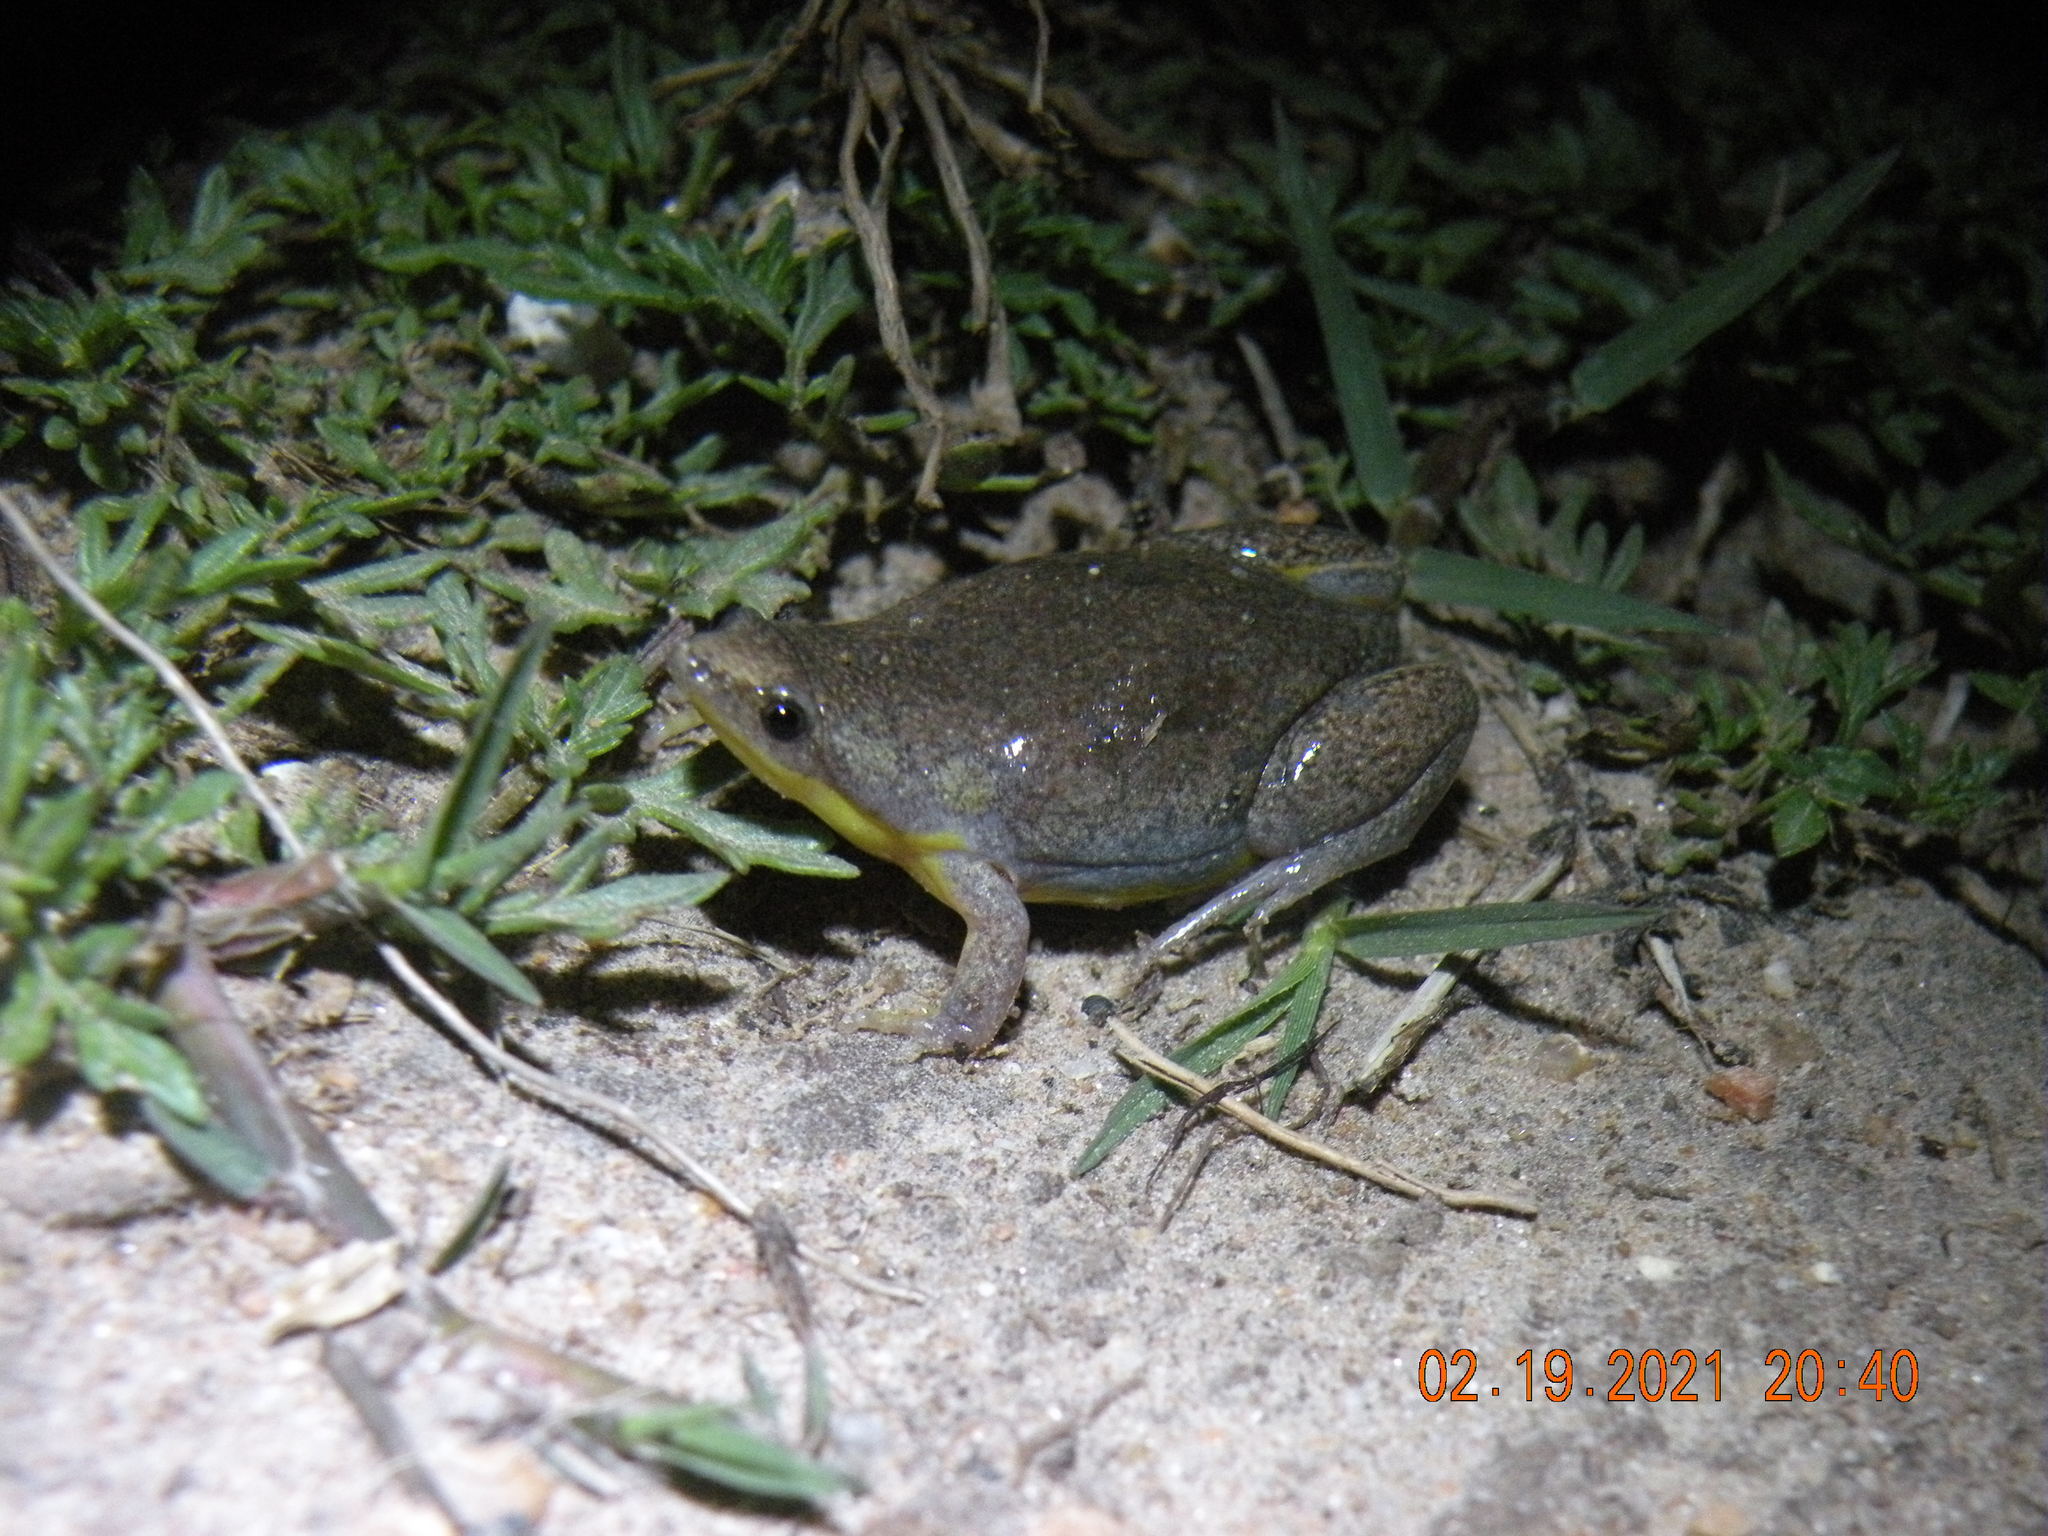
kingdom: Animalia
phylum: Chordata
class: Amphibia
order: Anura
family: Microhylidae
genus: Elachistocleis
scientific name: Elachistocleis bicolor
